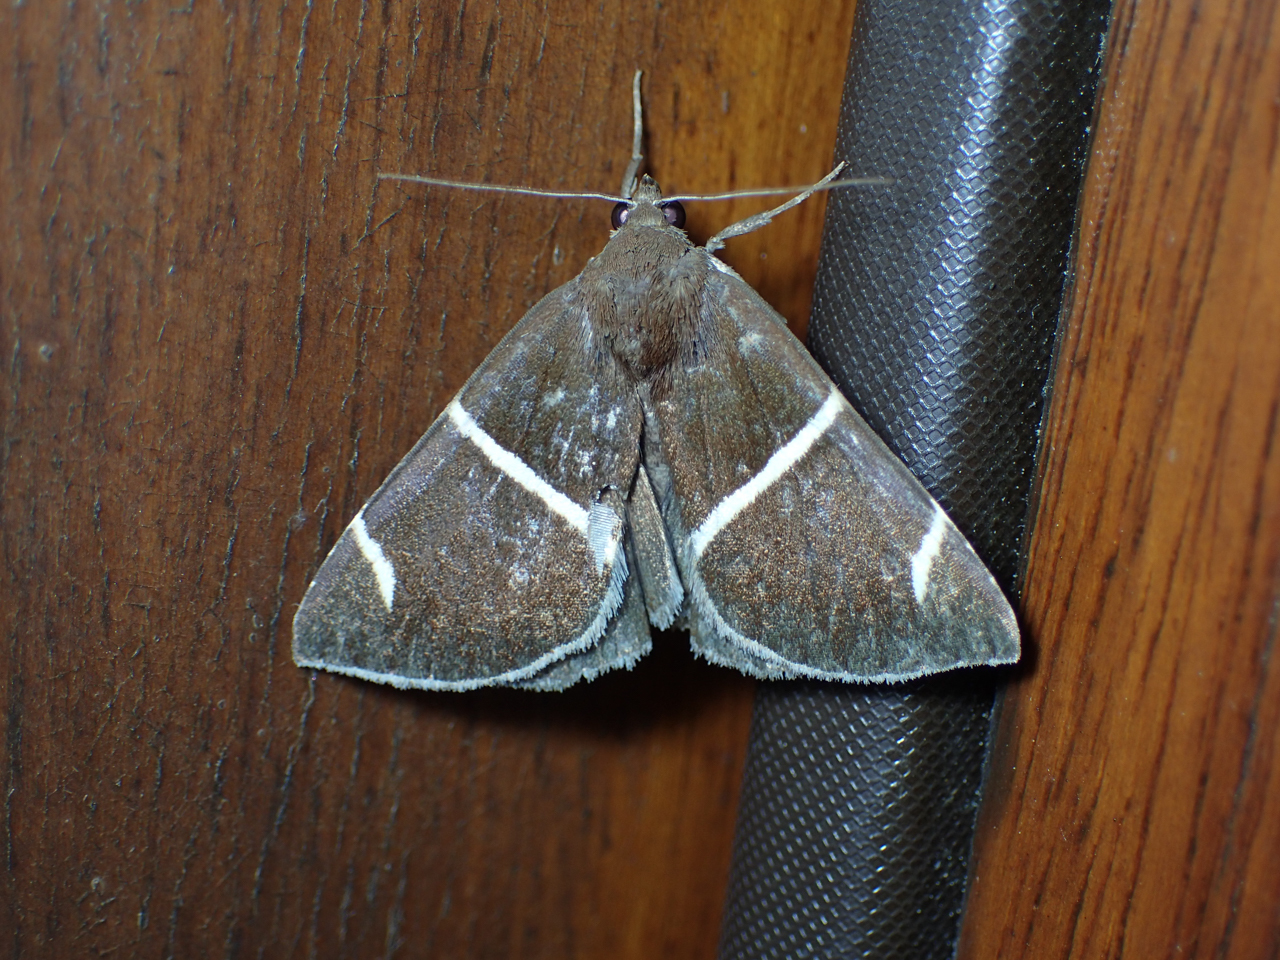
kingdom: Animalia
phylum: Arthropoda
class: Insecta
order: Lepidoptera
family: Erebidae
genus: Argyrostrotis
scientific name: Argyrostrotis anilis
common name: Short-lined chocolate
